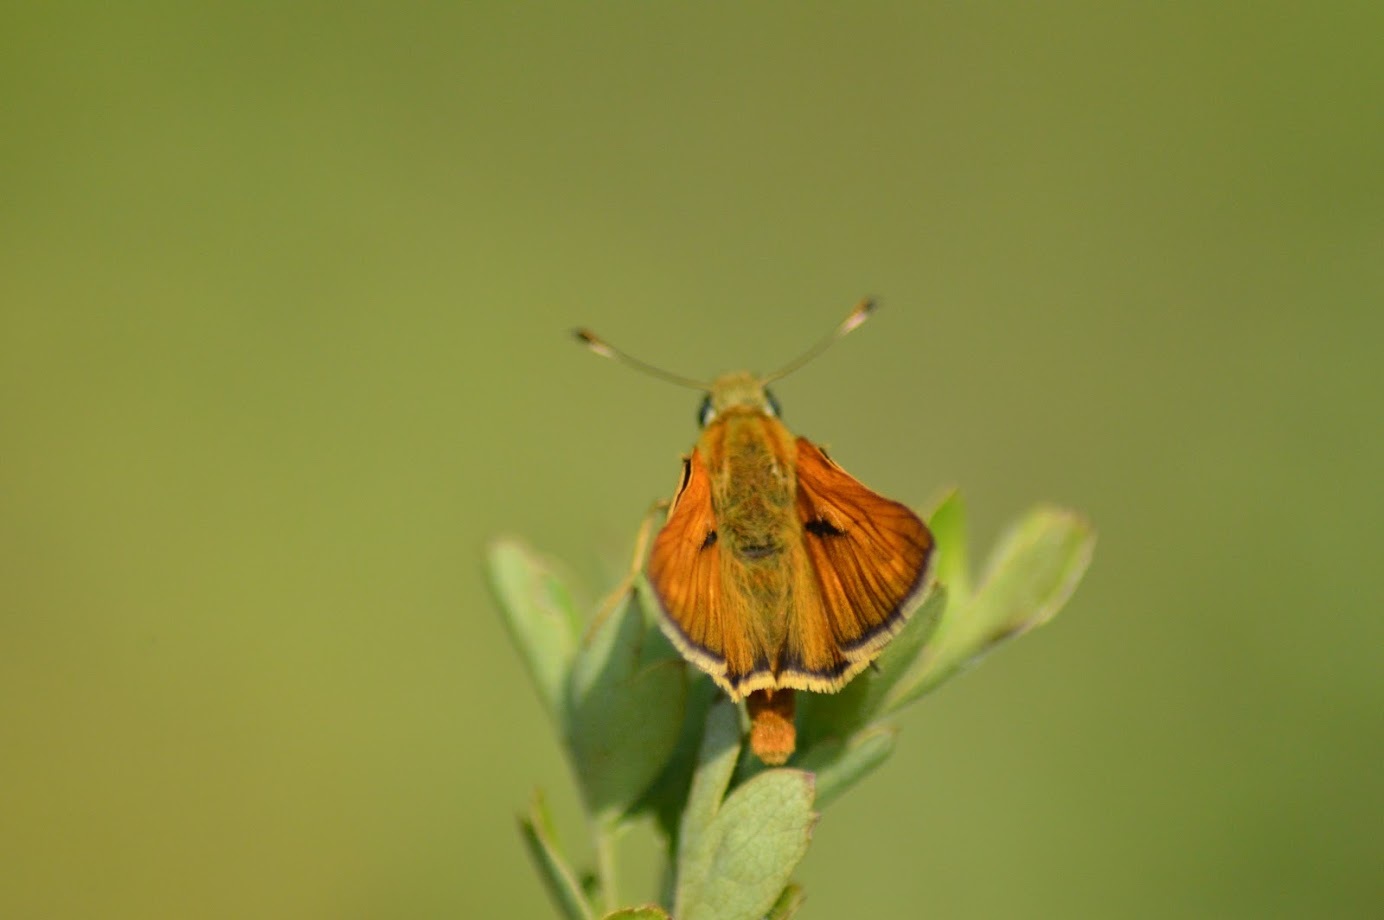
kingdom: Animalia
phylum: Arthropoda
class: Insecta
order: Lepidoptera
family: Hesperiidae
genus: Ochlodes
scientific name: Ochlodes venata
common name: Large skipper
